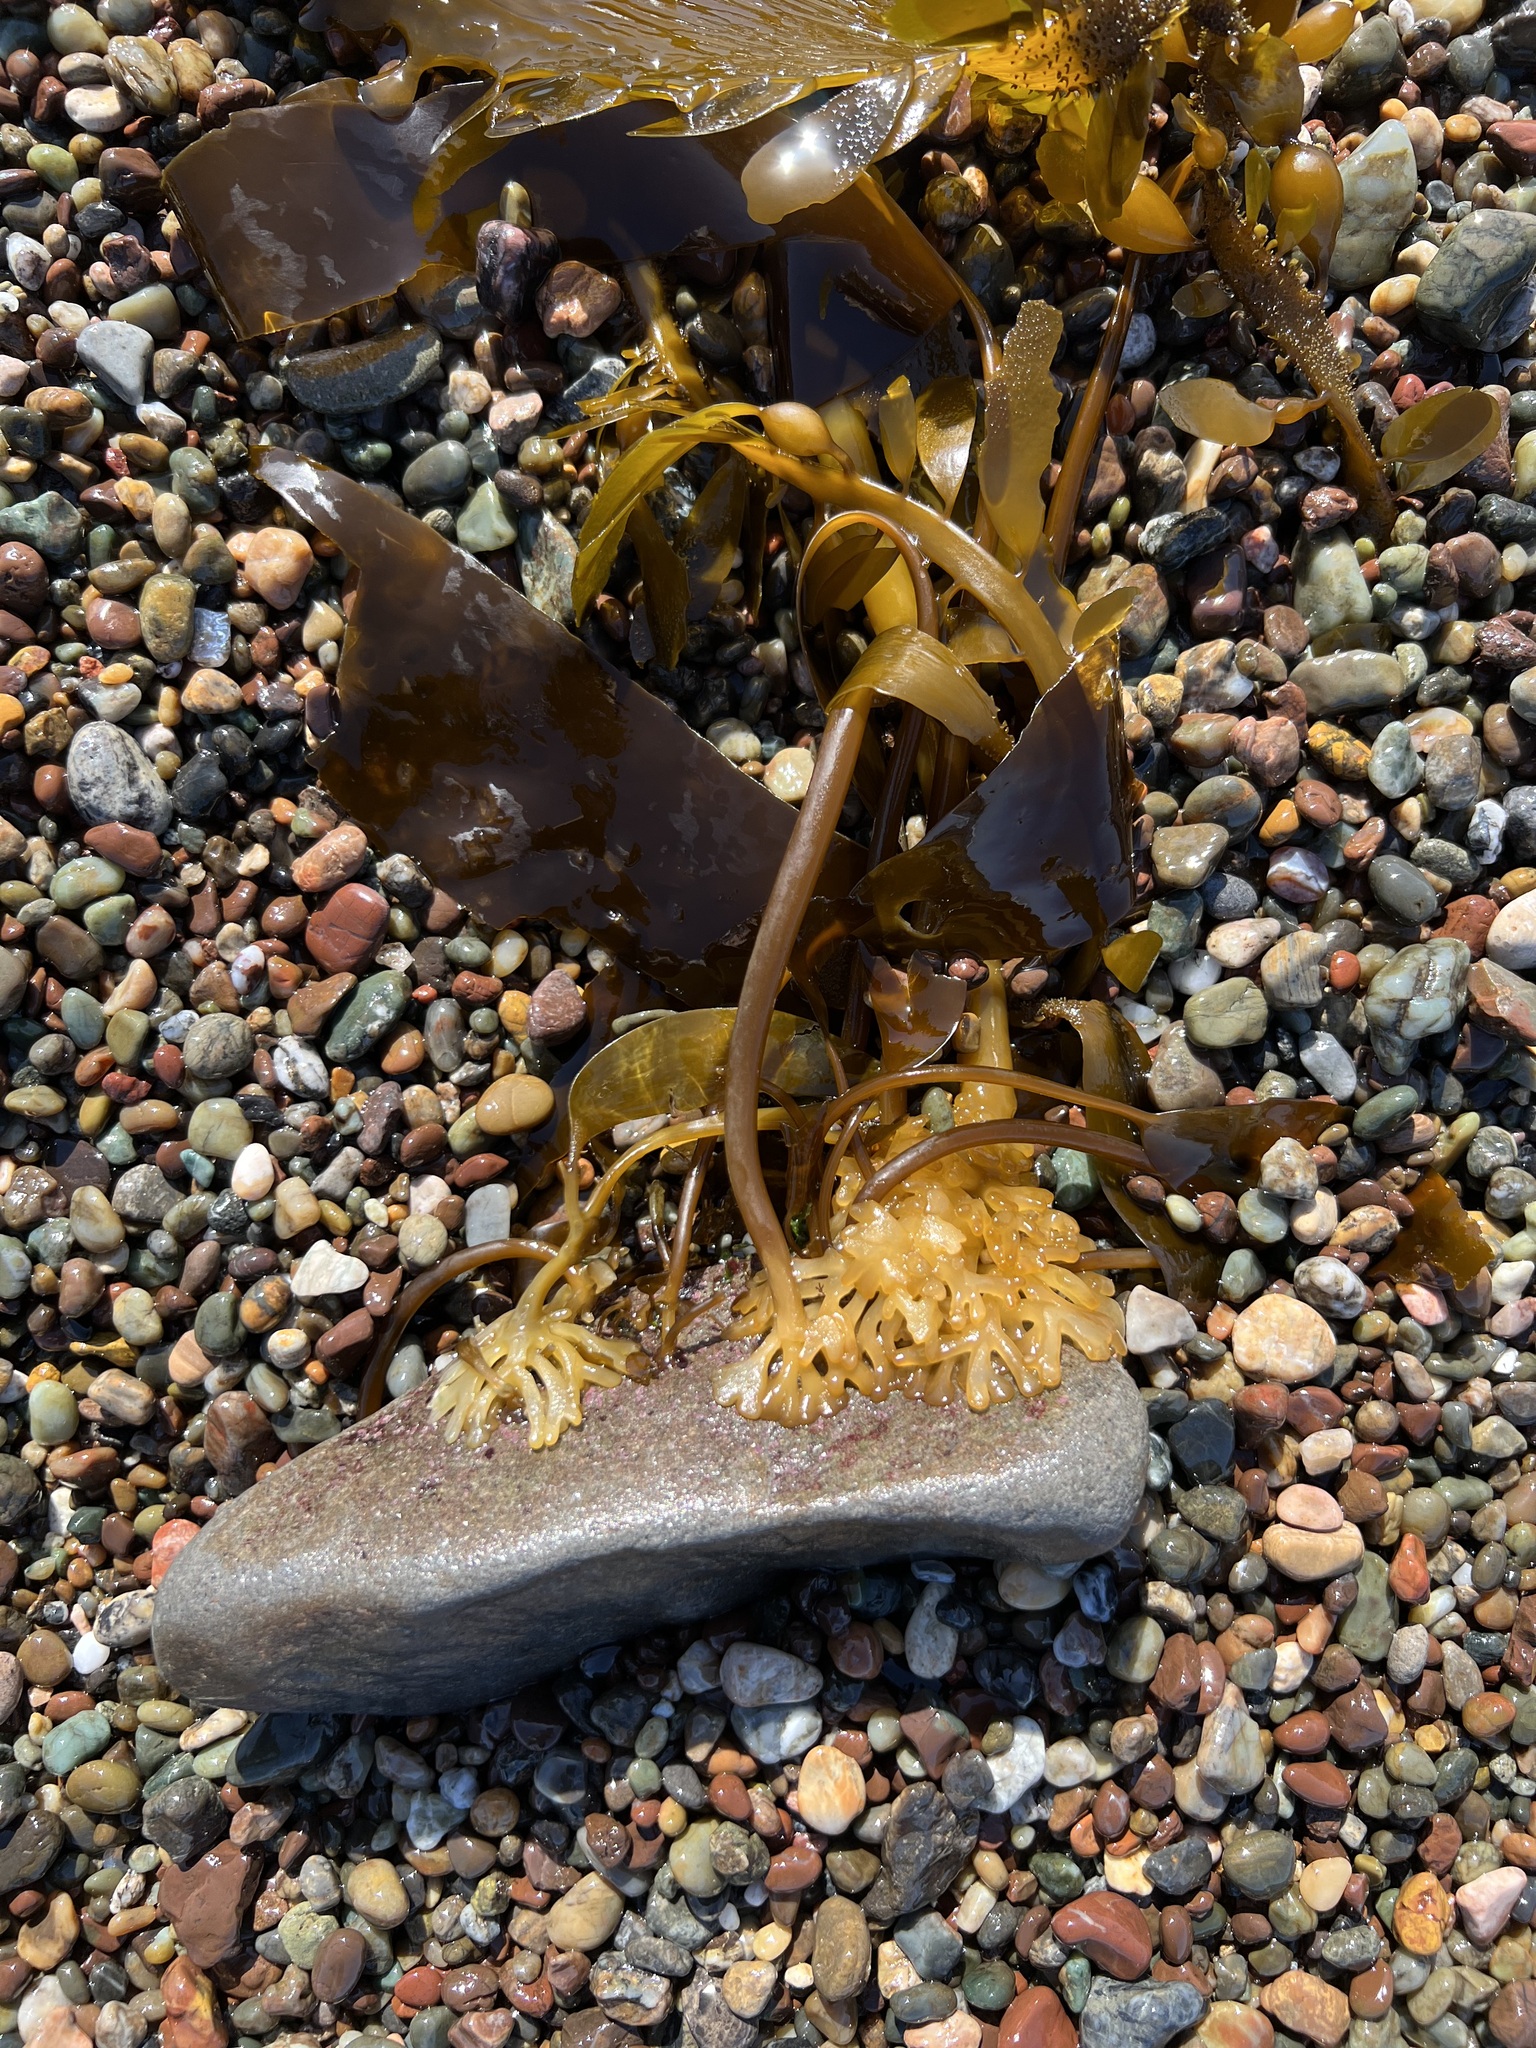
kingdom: Chromista
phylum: Ochrophyta
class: Phaeophyceae
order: Laminariales
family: Laminariaceae
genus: Nereocystis
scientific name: Nereocystis luetkeana
